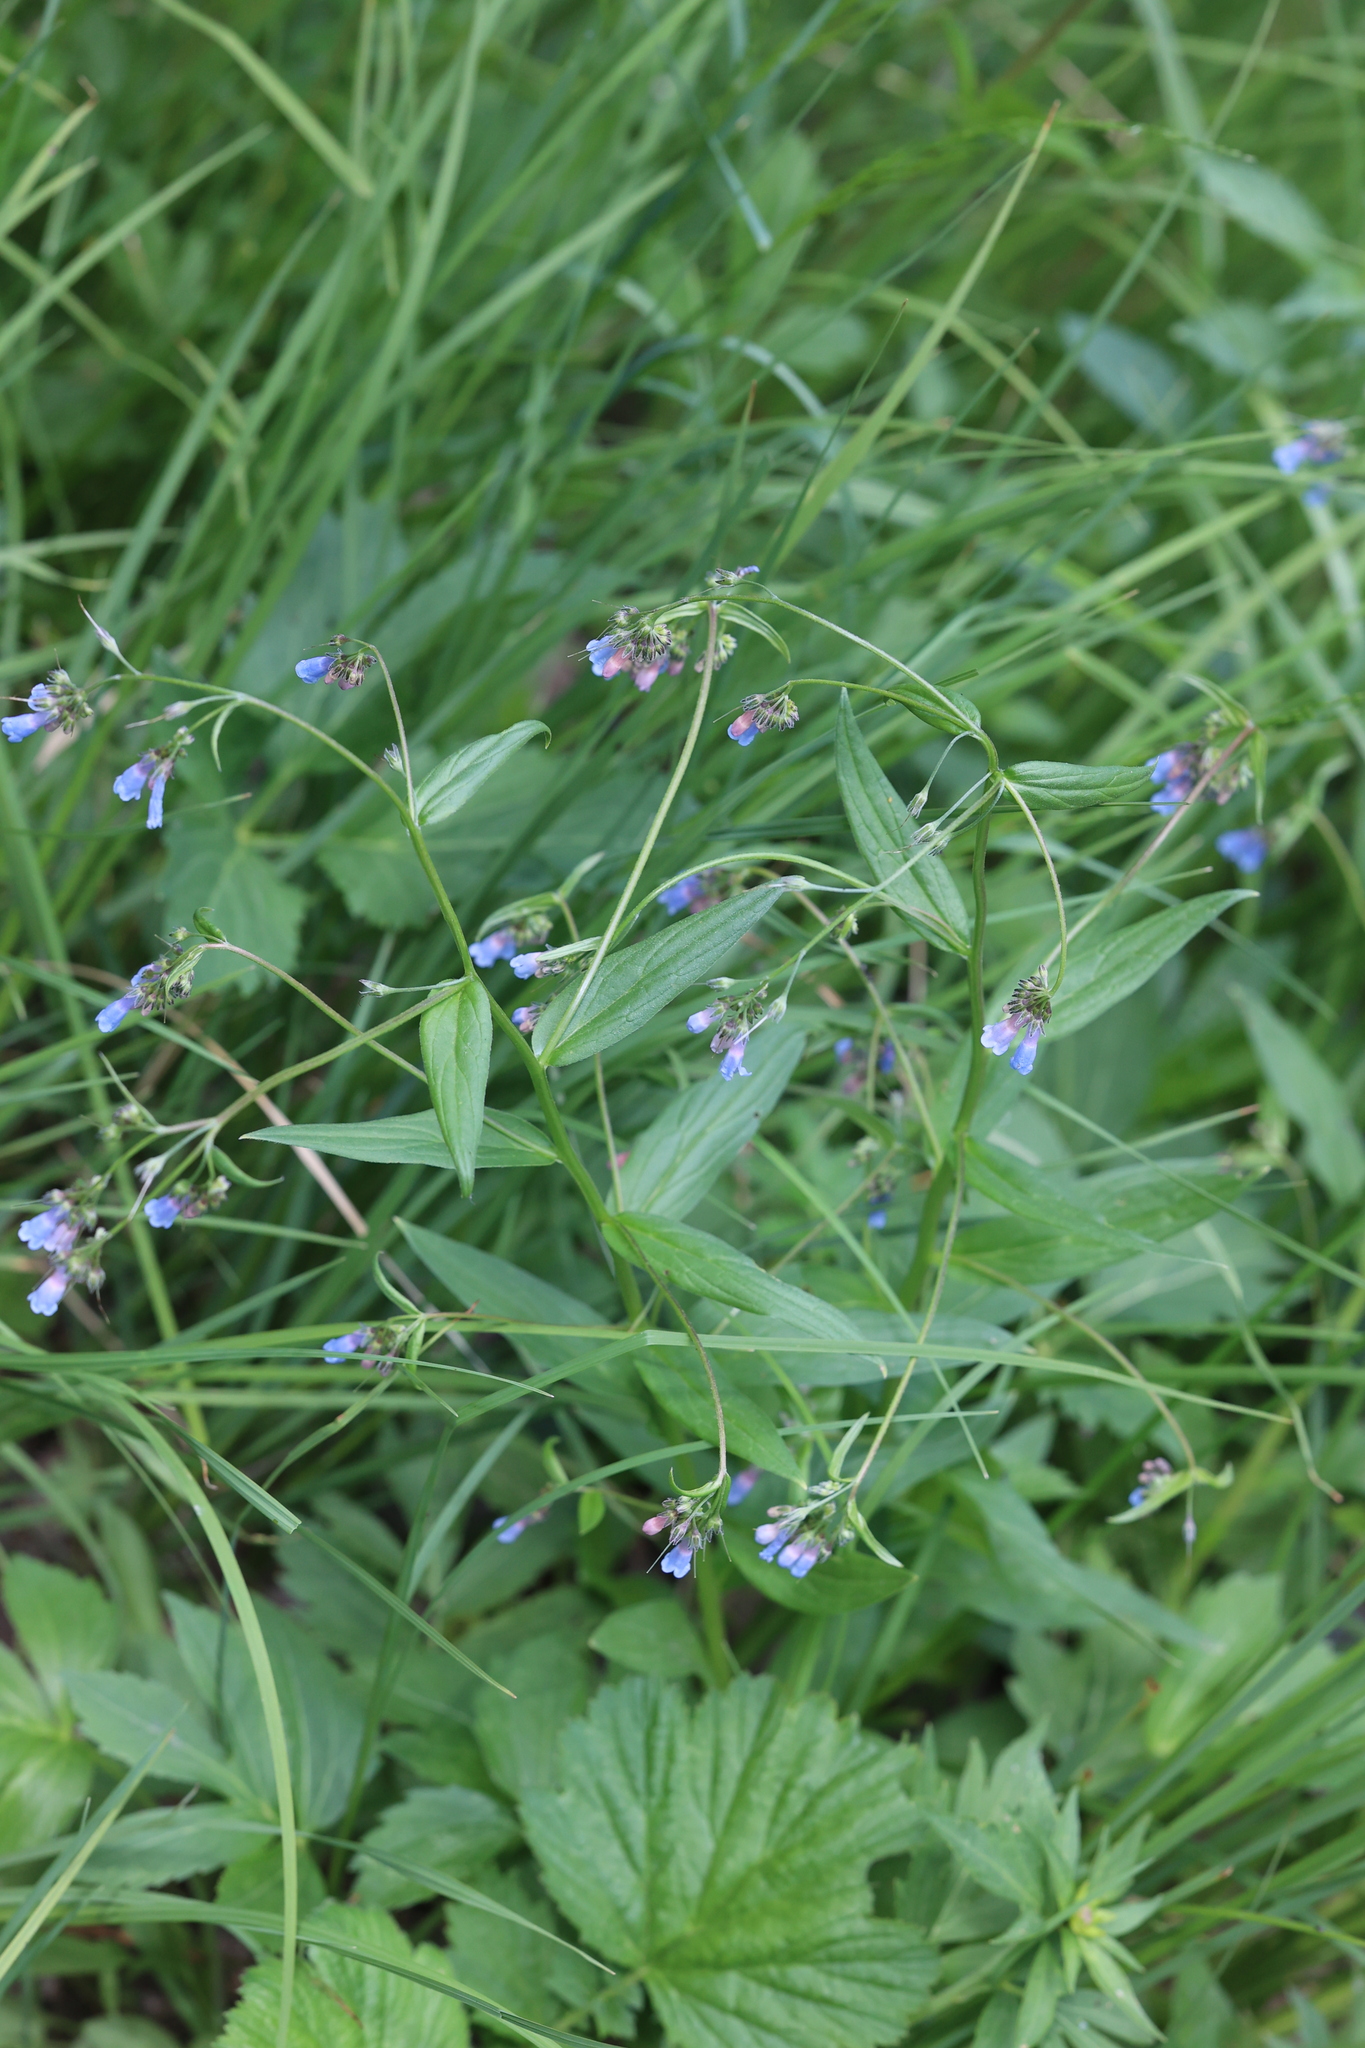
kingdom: Plantae
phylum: Tracheophyta
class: Magnoliopsida
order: Boraginales
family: Boraginaceae
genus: Mertensia
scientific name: Mertensia franciscana
